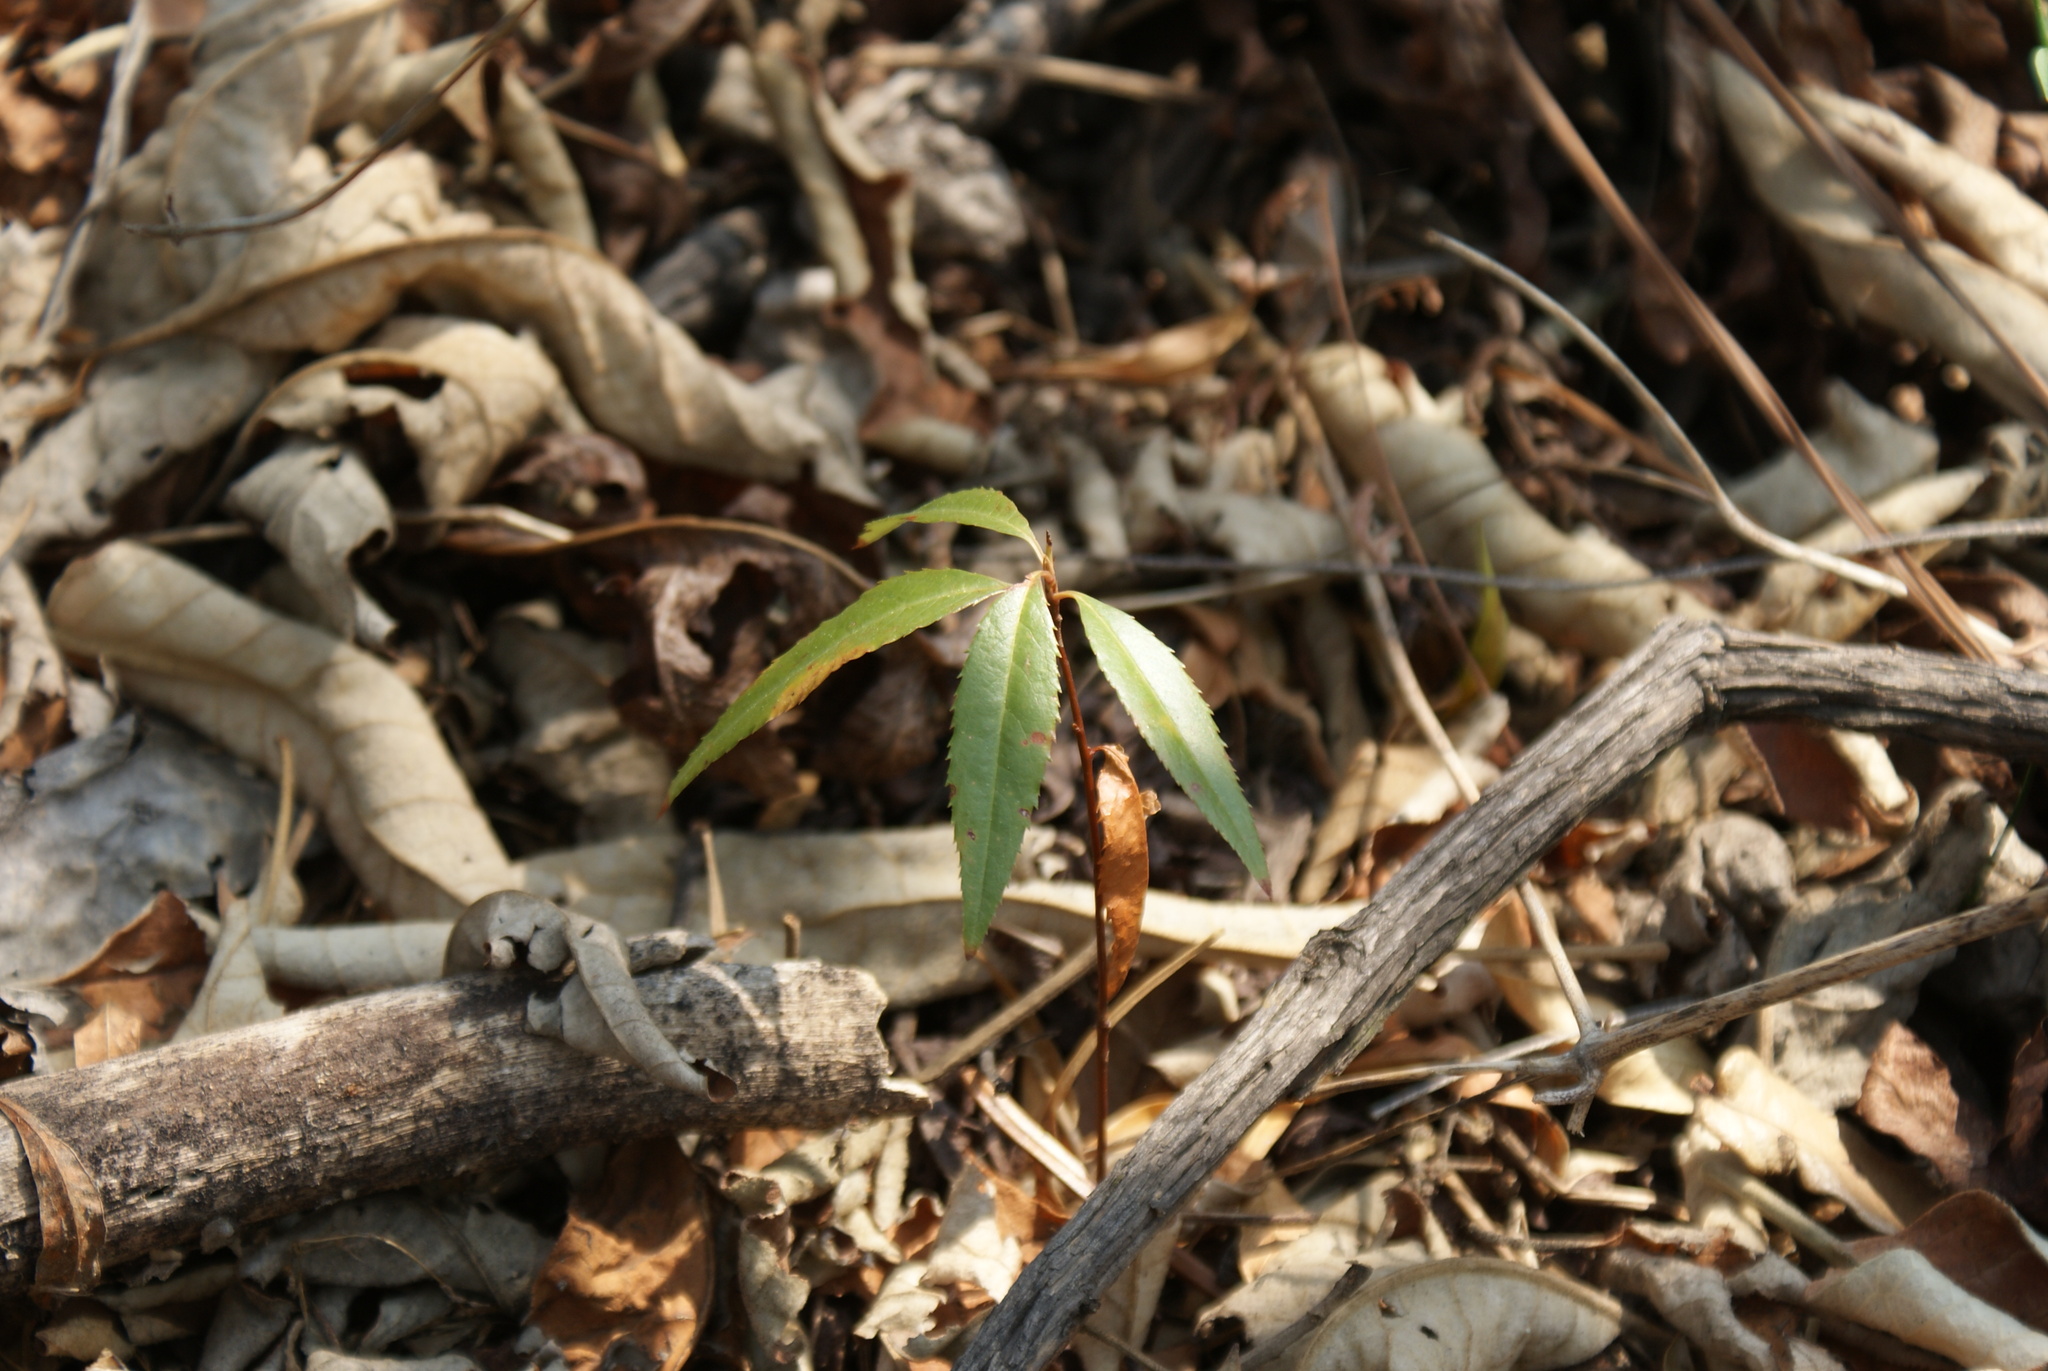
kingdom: Plantae
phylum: Tracheophyta
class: Magnoliopsida
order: Rosales
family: Rosaceae
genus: Prunus
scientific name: Prunus serotina
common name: Black cherry
